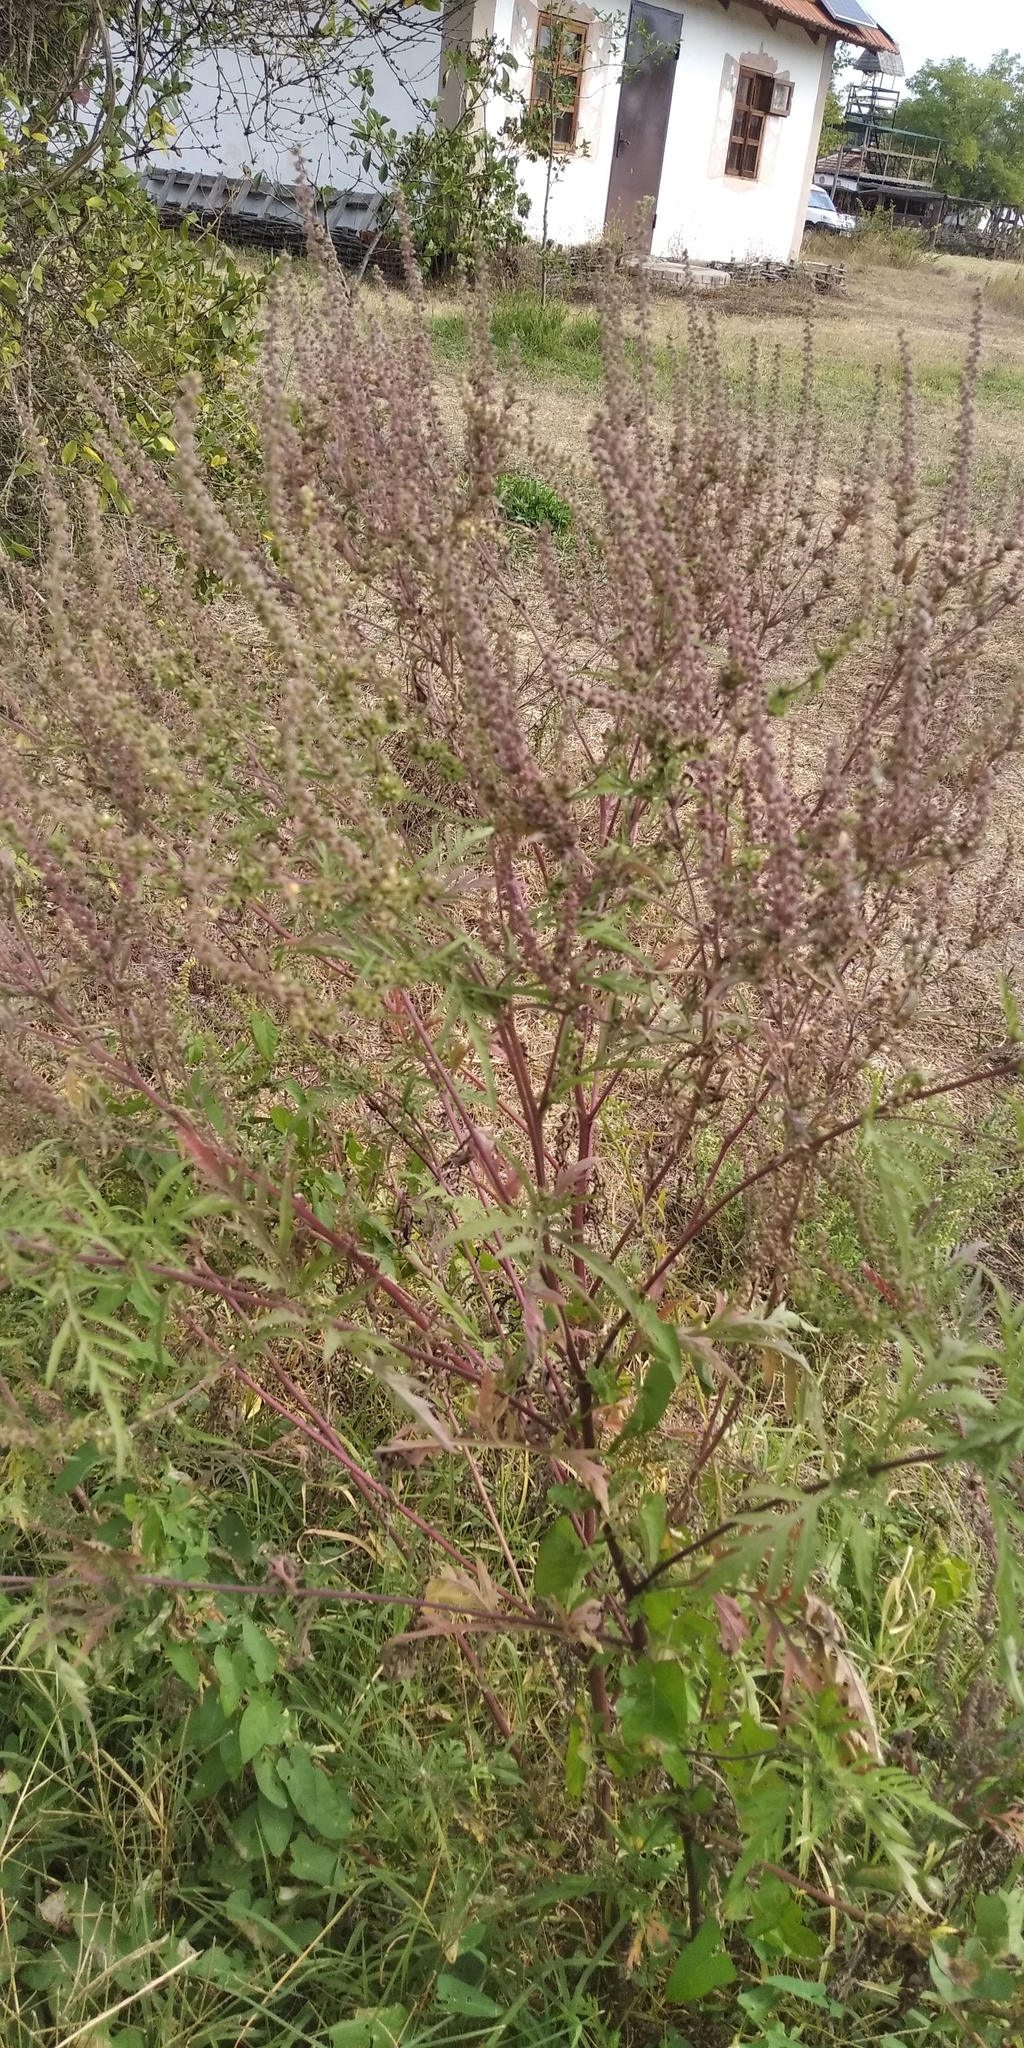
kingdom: Plantae
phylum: Tracheophyta
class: Magnoliopsida
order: Asterales
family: Asteraceae
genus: Ambrosia
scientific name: Ambrosia artemisiifolia
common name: Annual ragweed
